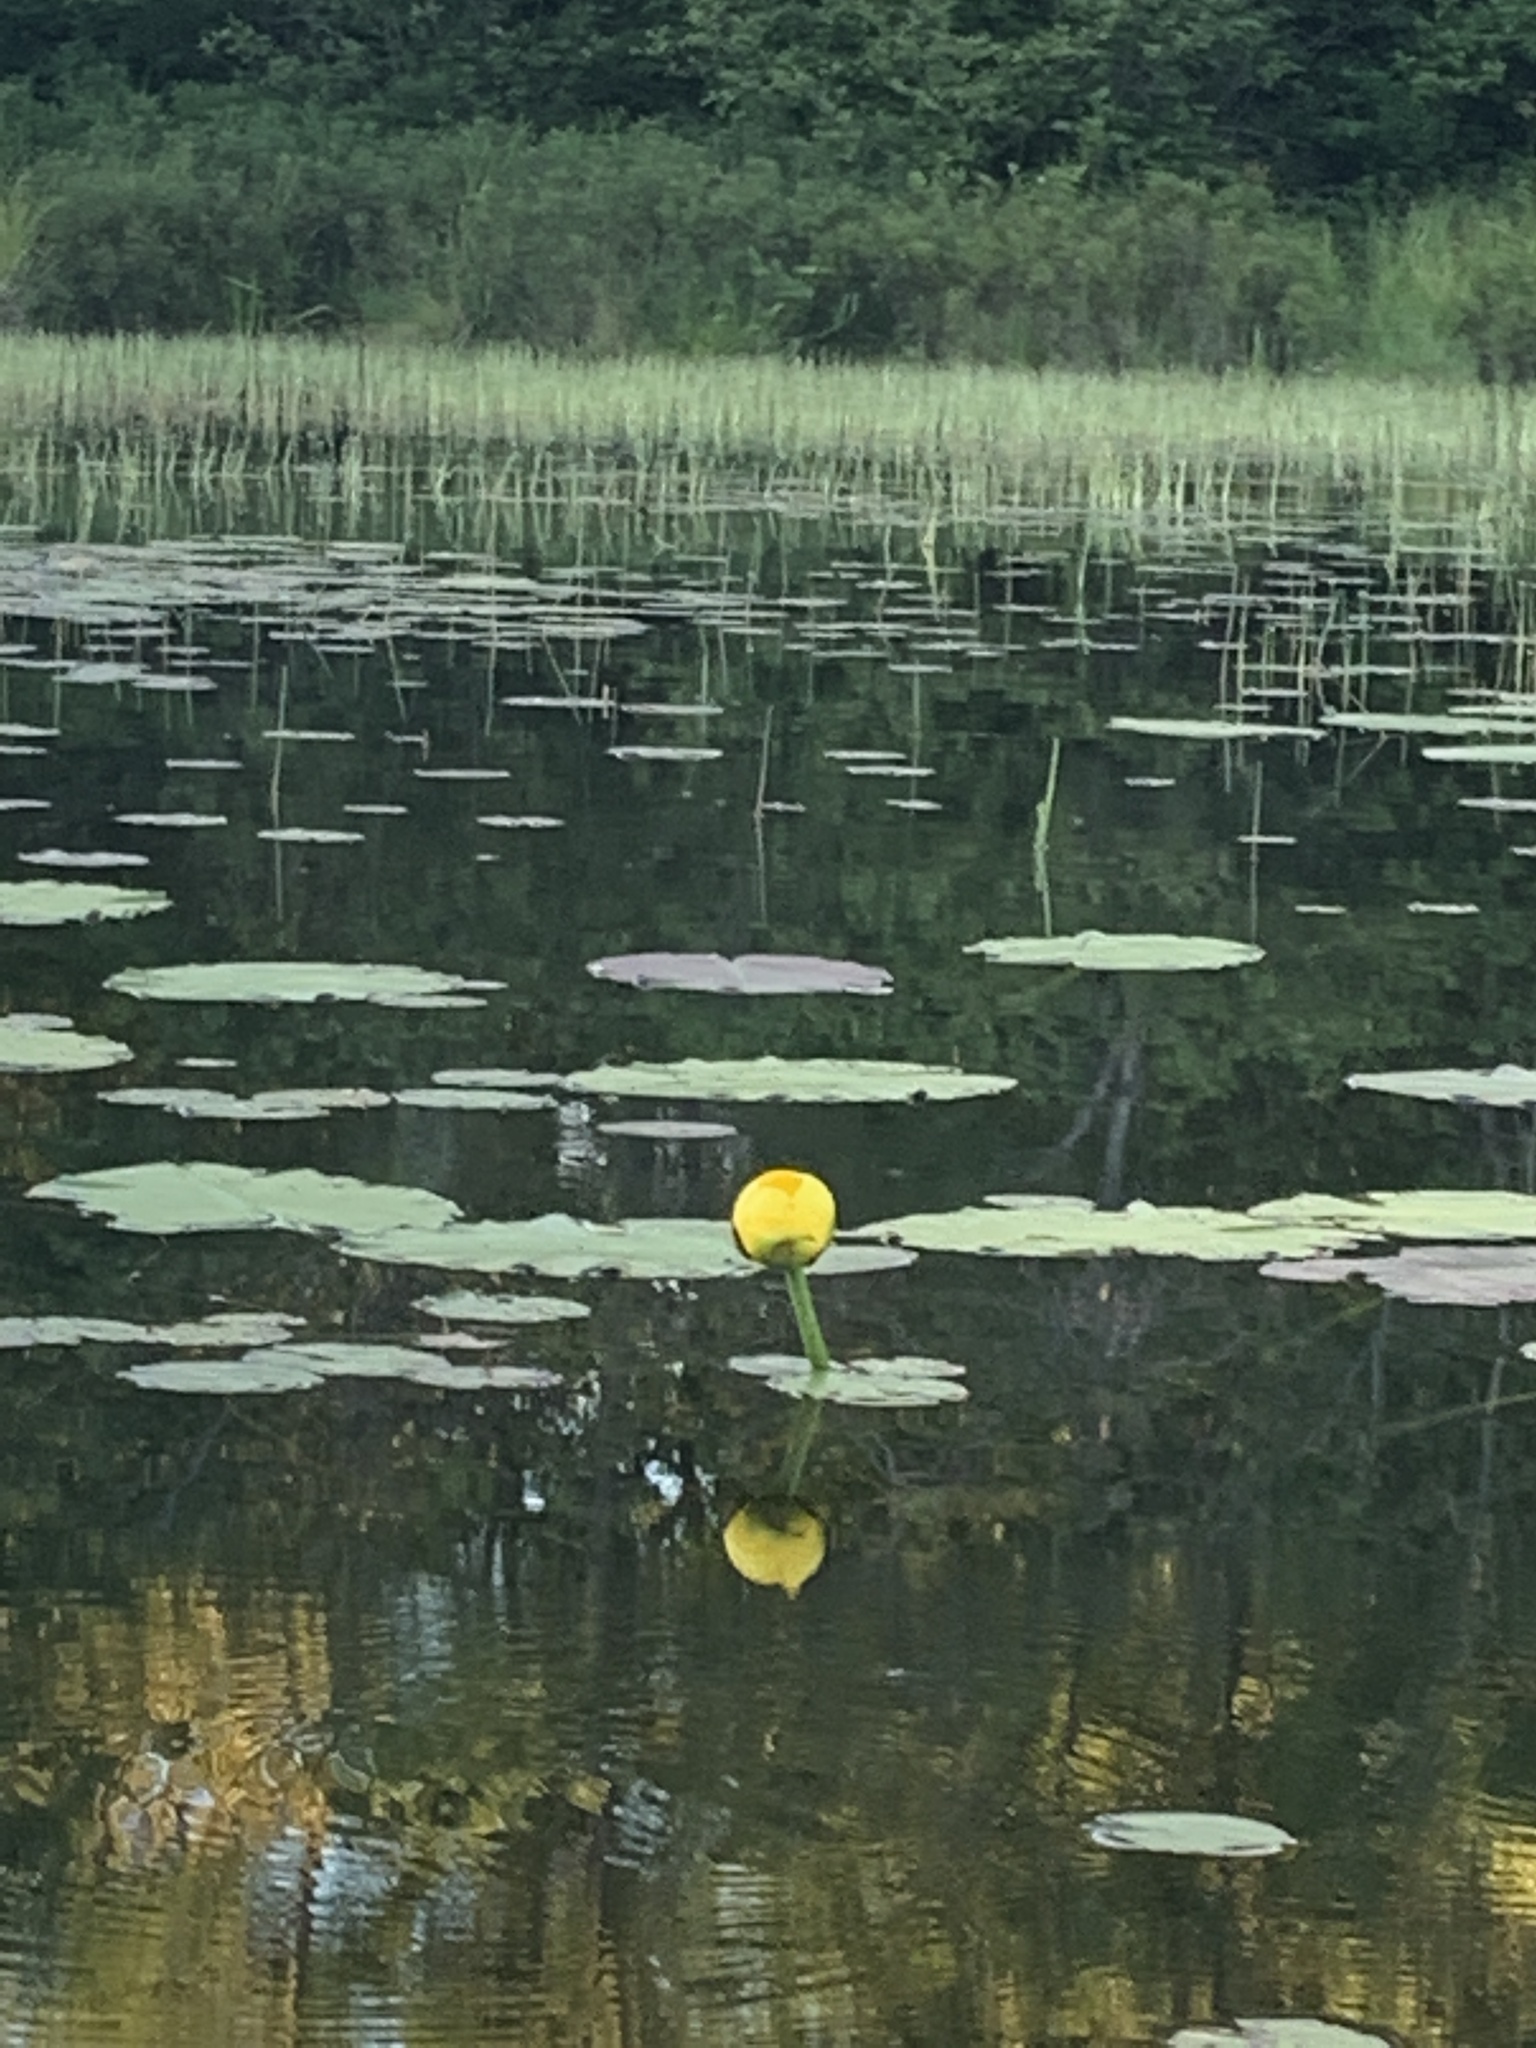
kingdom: Plantae
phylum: Tracheophyta
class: Magnoliopsida
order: Nymphaeales
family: Nymphaeaceae
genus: Nuphar
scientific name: Nuphar variegata
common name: Beaver-root
